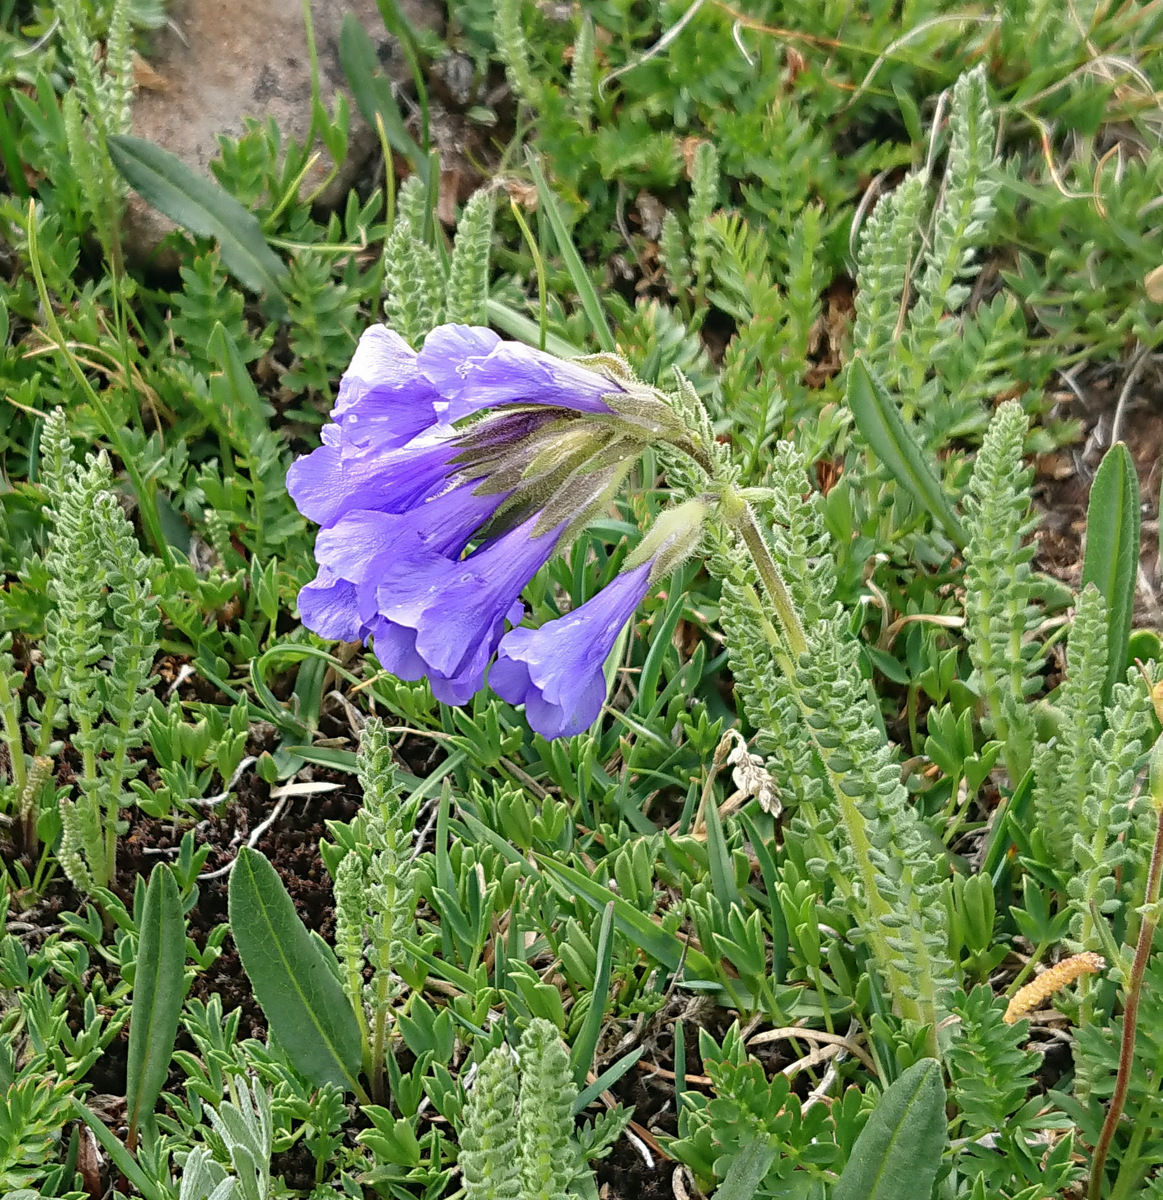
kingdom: Plantae
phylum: Tracheophyta
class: Magnoliopsida
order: Ericales
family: Polemoniaceae
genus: Polemonium
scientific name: Polemonium viscosum
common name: Skunk jacob's-ladder
